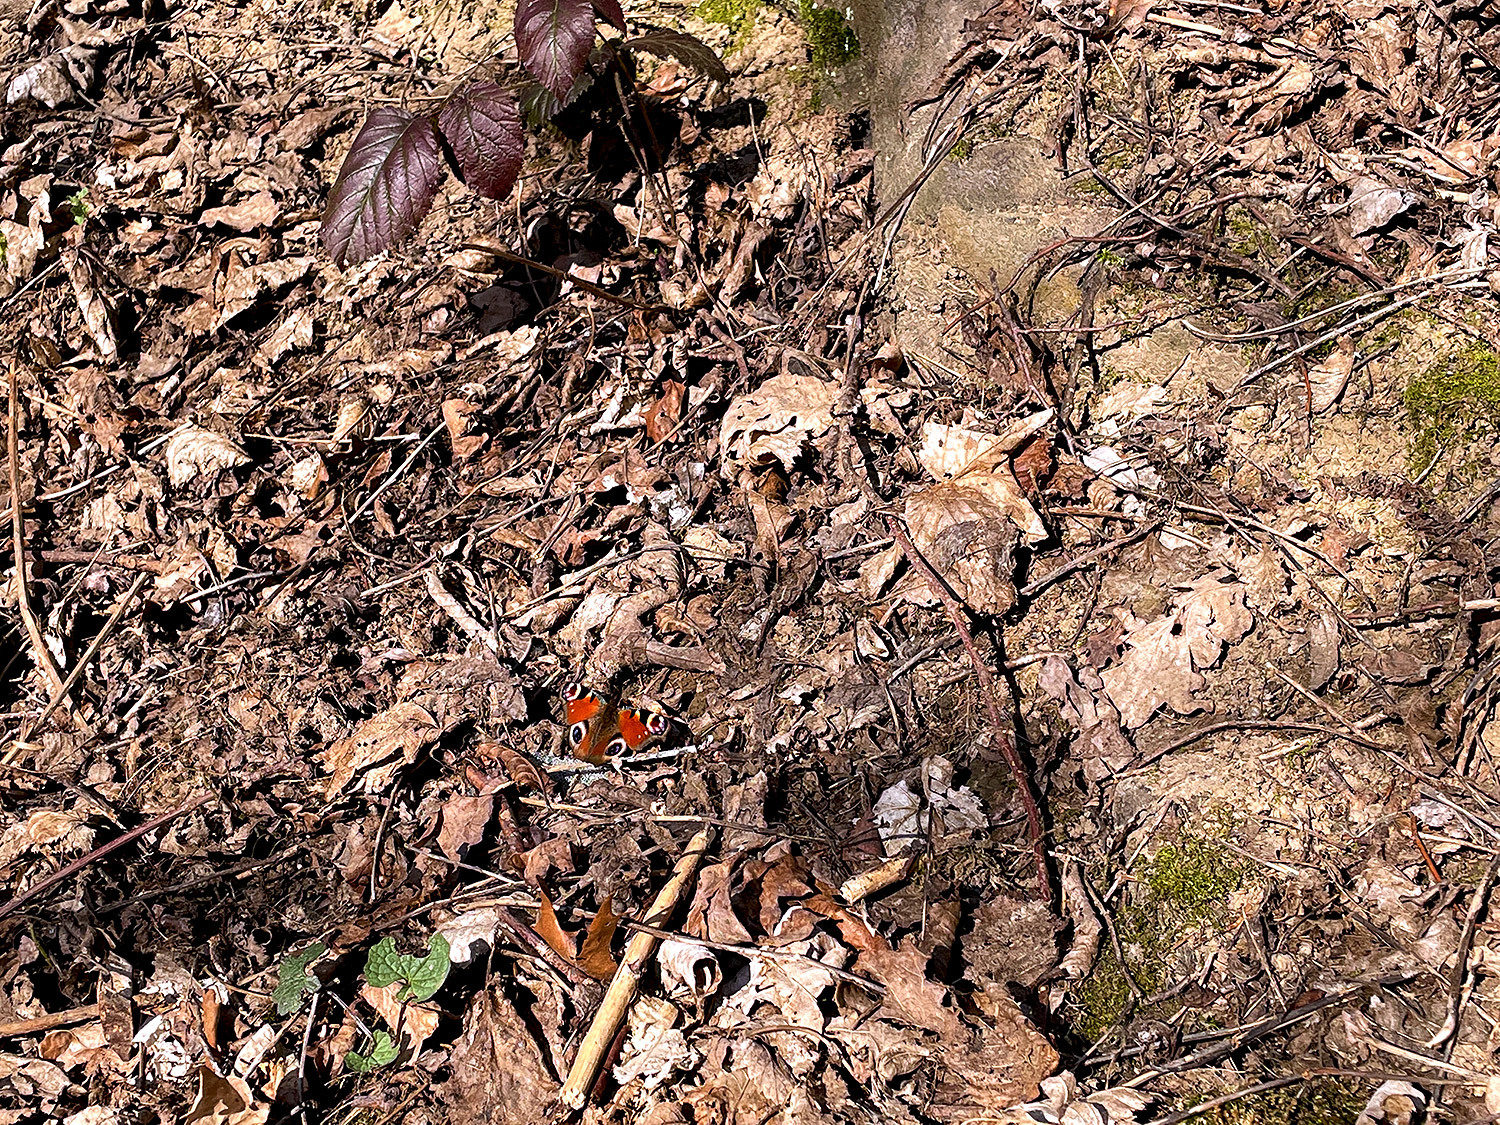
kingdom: Animalia
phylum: Arthropoda
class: Insecta
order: Lepidoptera
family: Nymphalidae
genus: Aglais
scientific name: Aglais io
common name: Peacock
